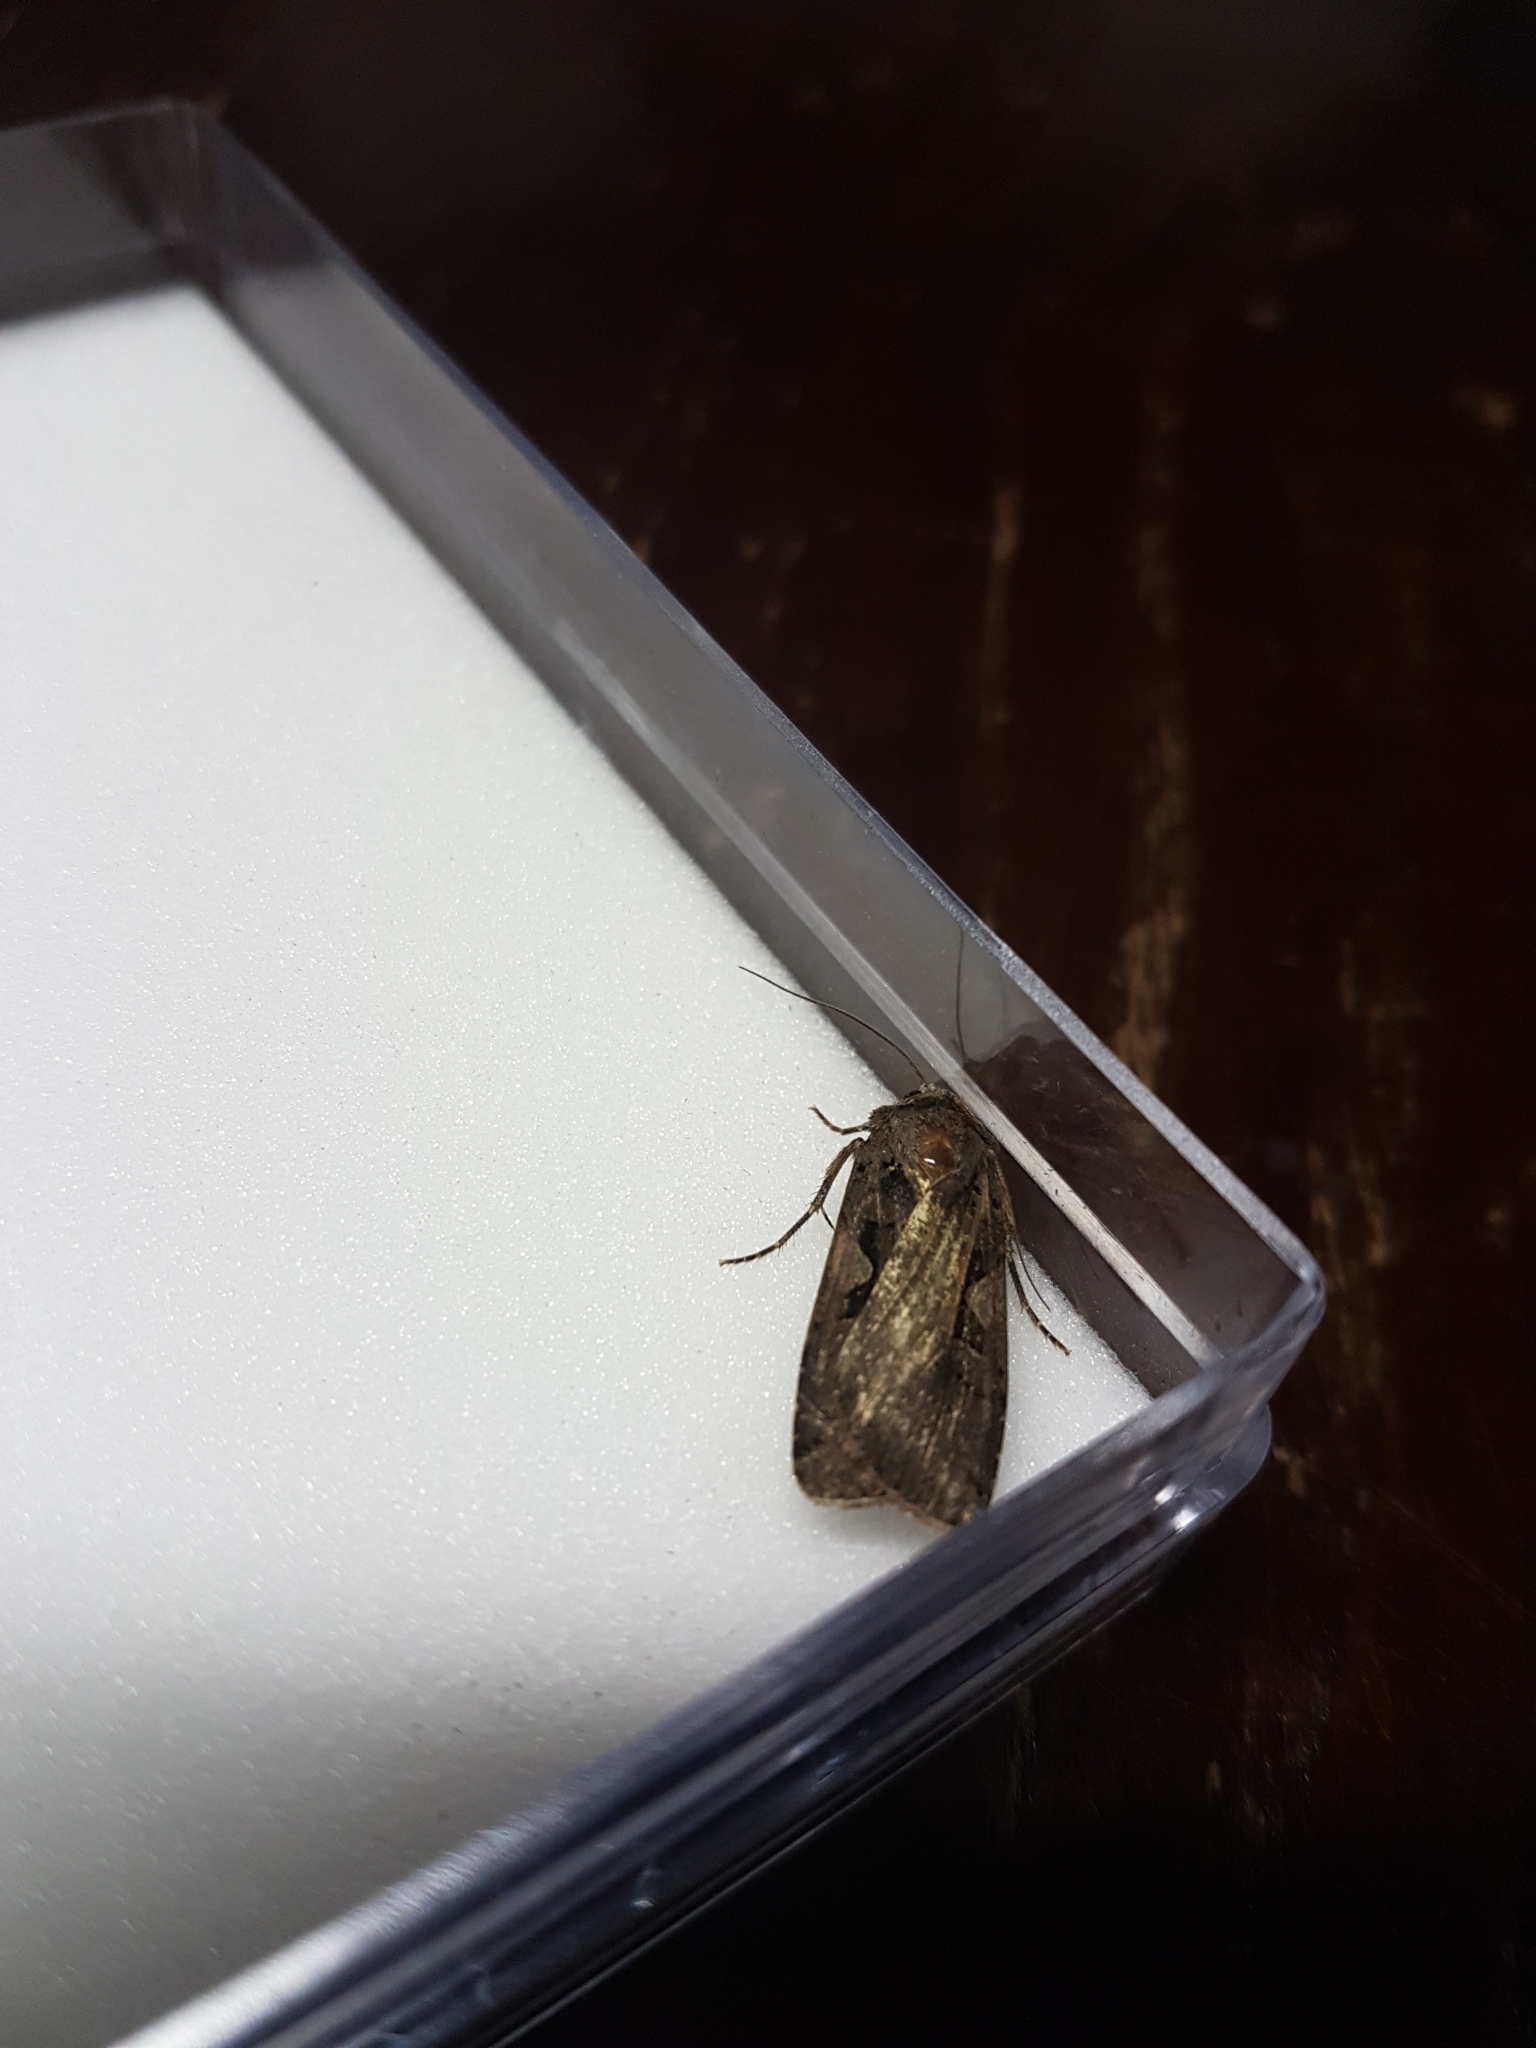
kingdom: Animalia
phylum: Arthropoda
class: Insecta
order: Lepidoptera
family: Noctuidae
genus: Xestia
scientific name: Xestia c-nigrum
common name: Setaceous hebrew character
